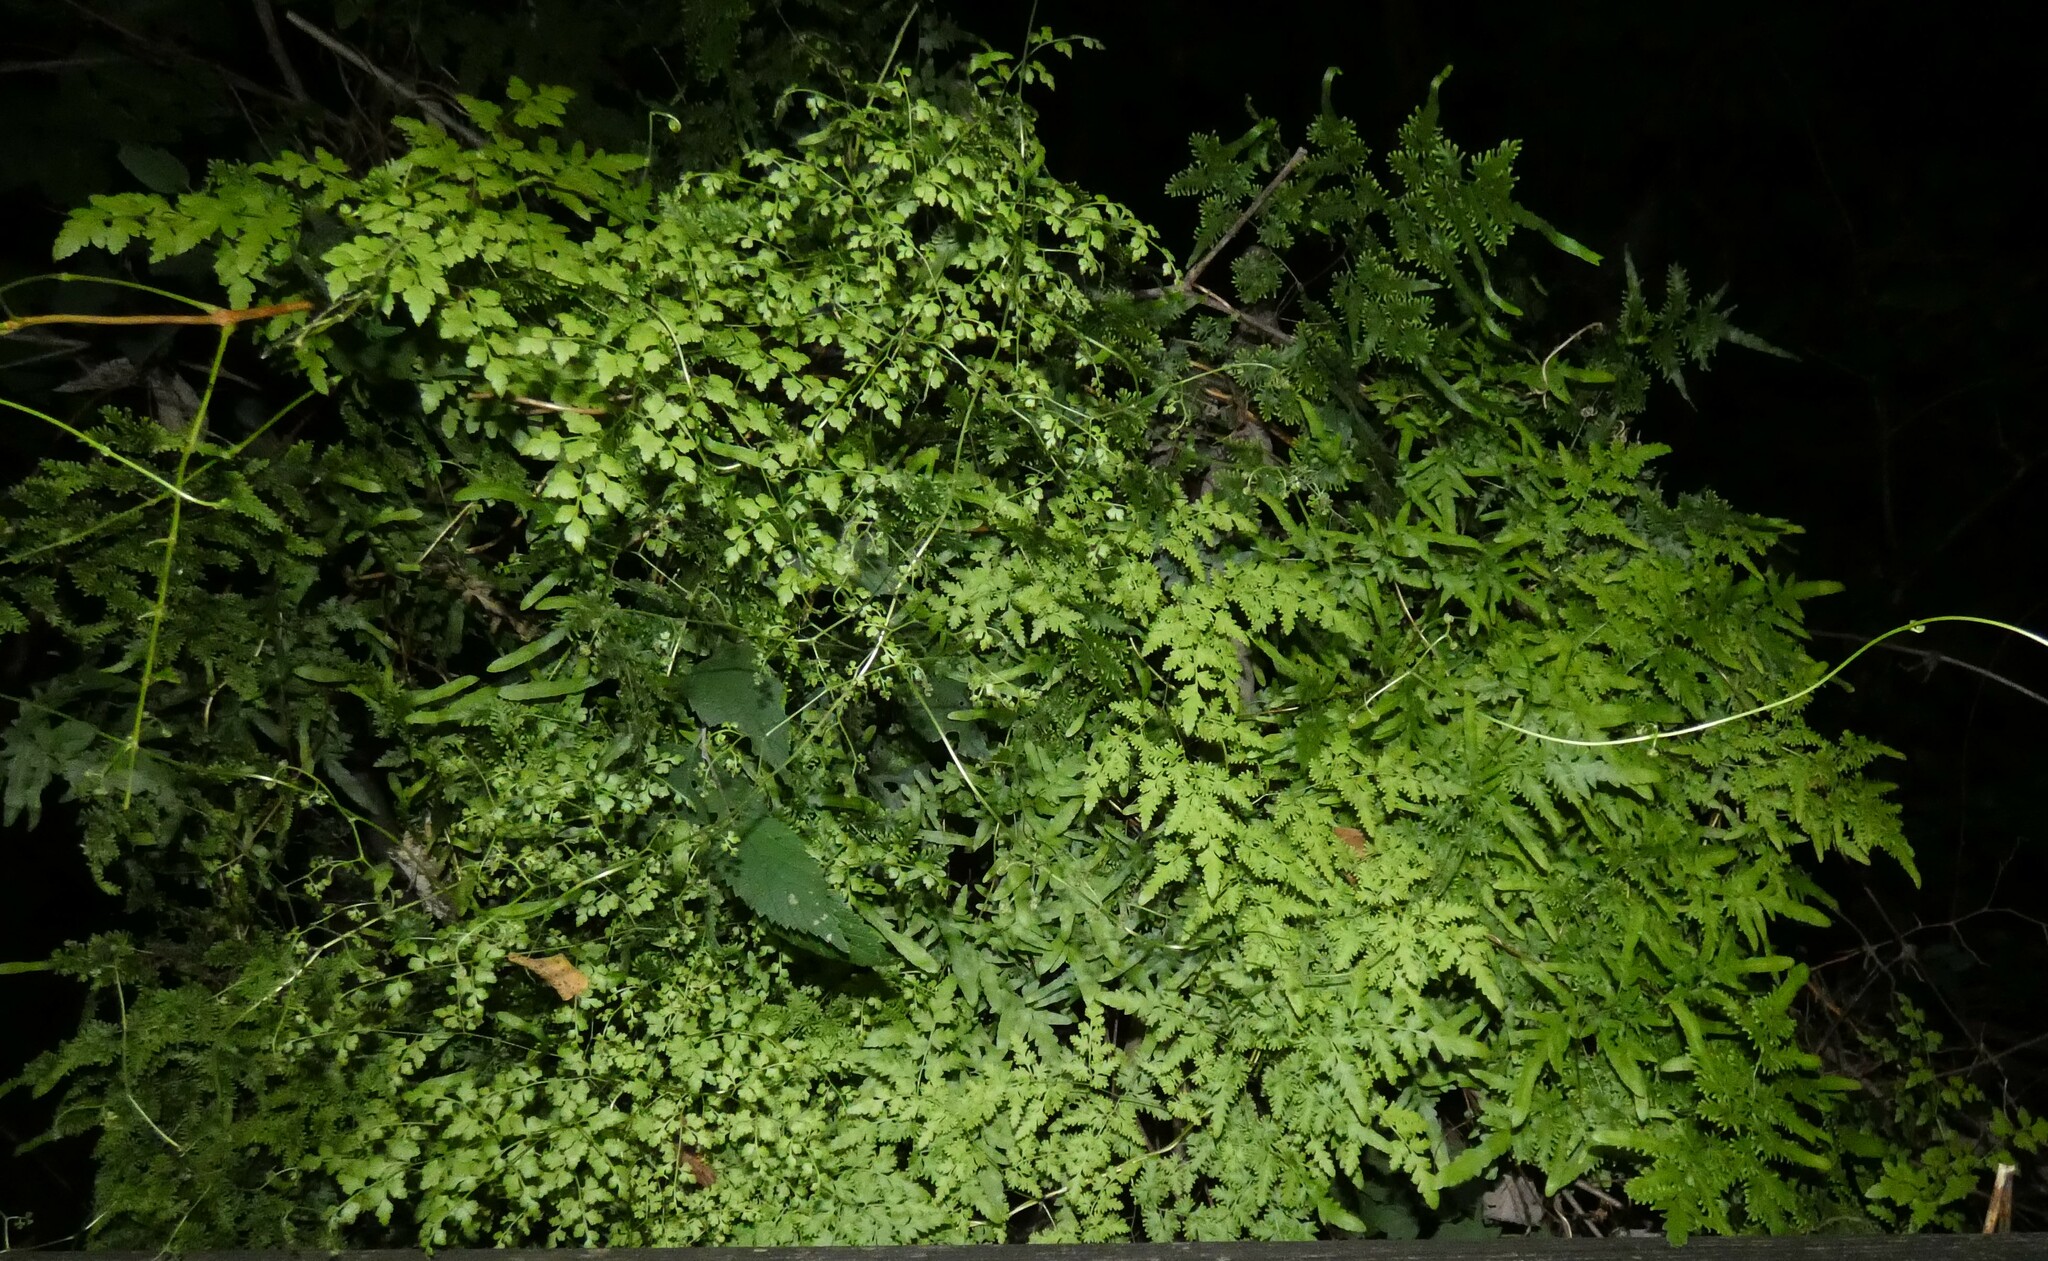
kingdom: Plantae
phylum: Tracheophyta
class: Polypodiopsida
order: Schizaeales
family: Lygodiaceae
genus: Lygodium
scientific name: Lygodium japonicum
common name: Japanese climbing fern
